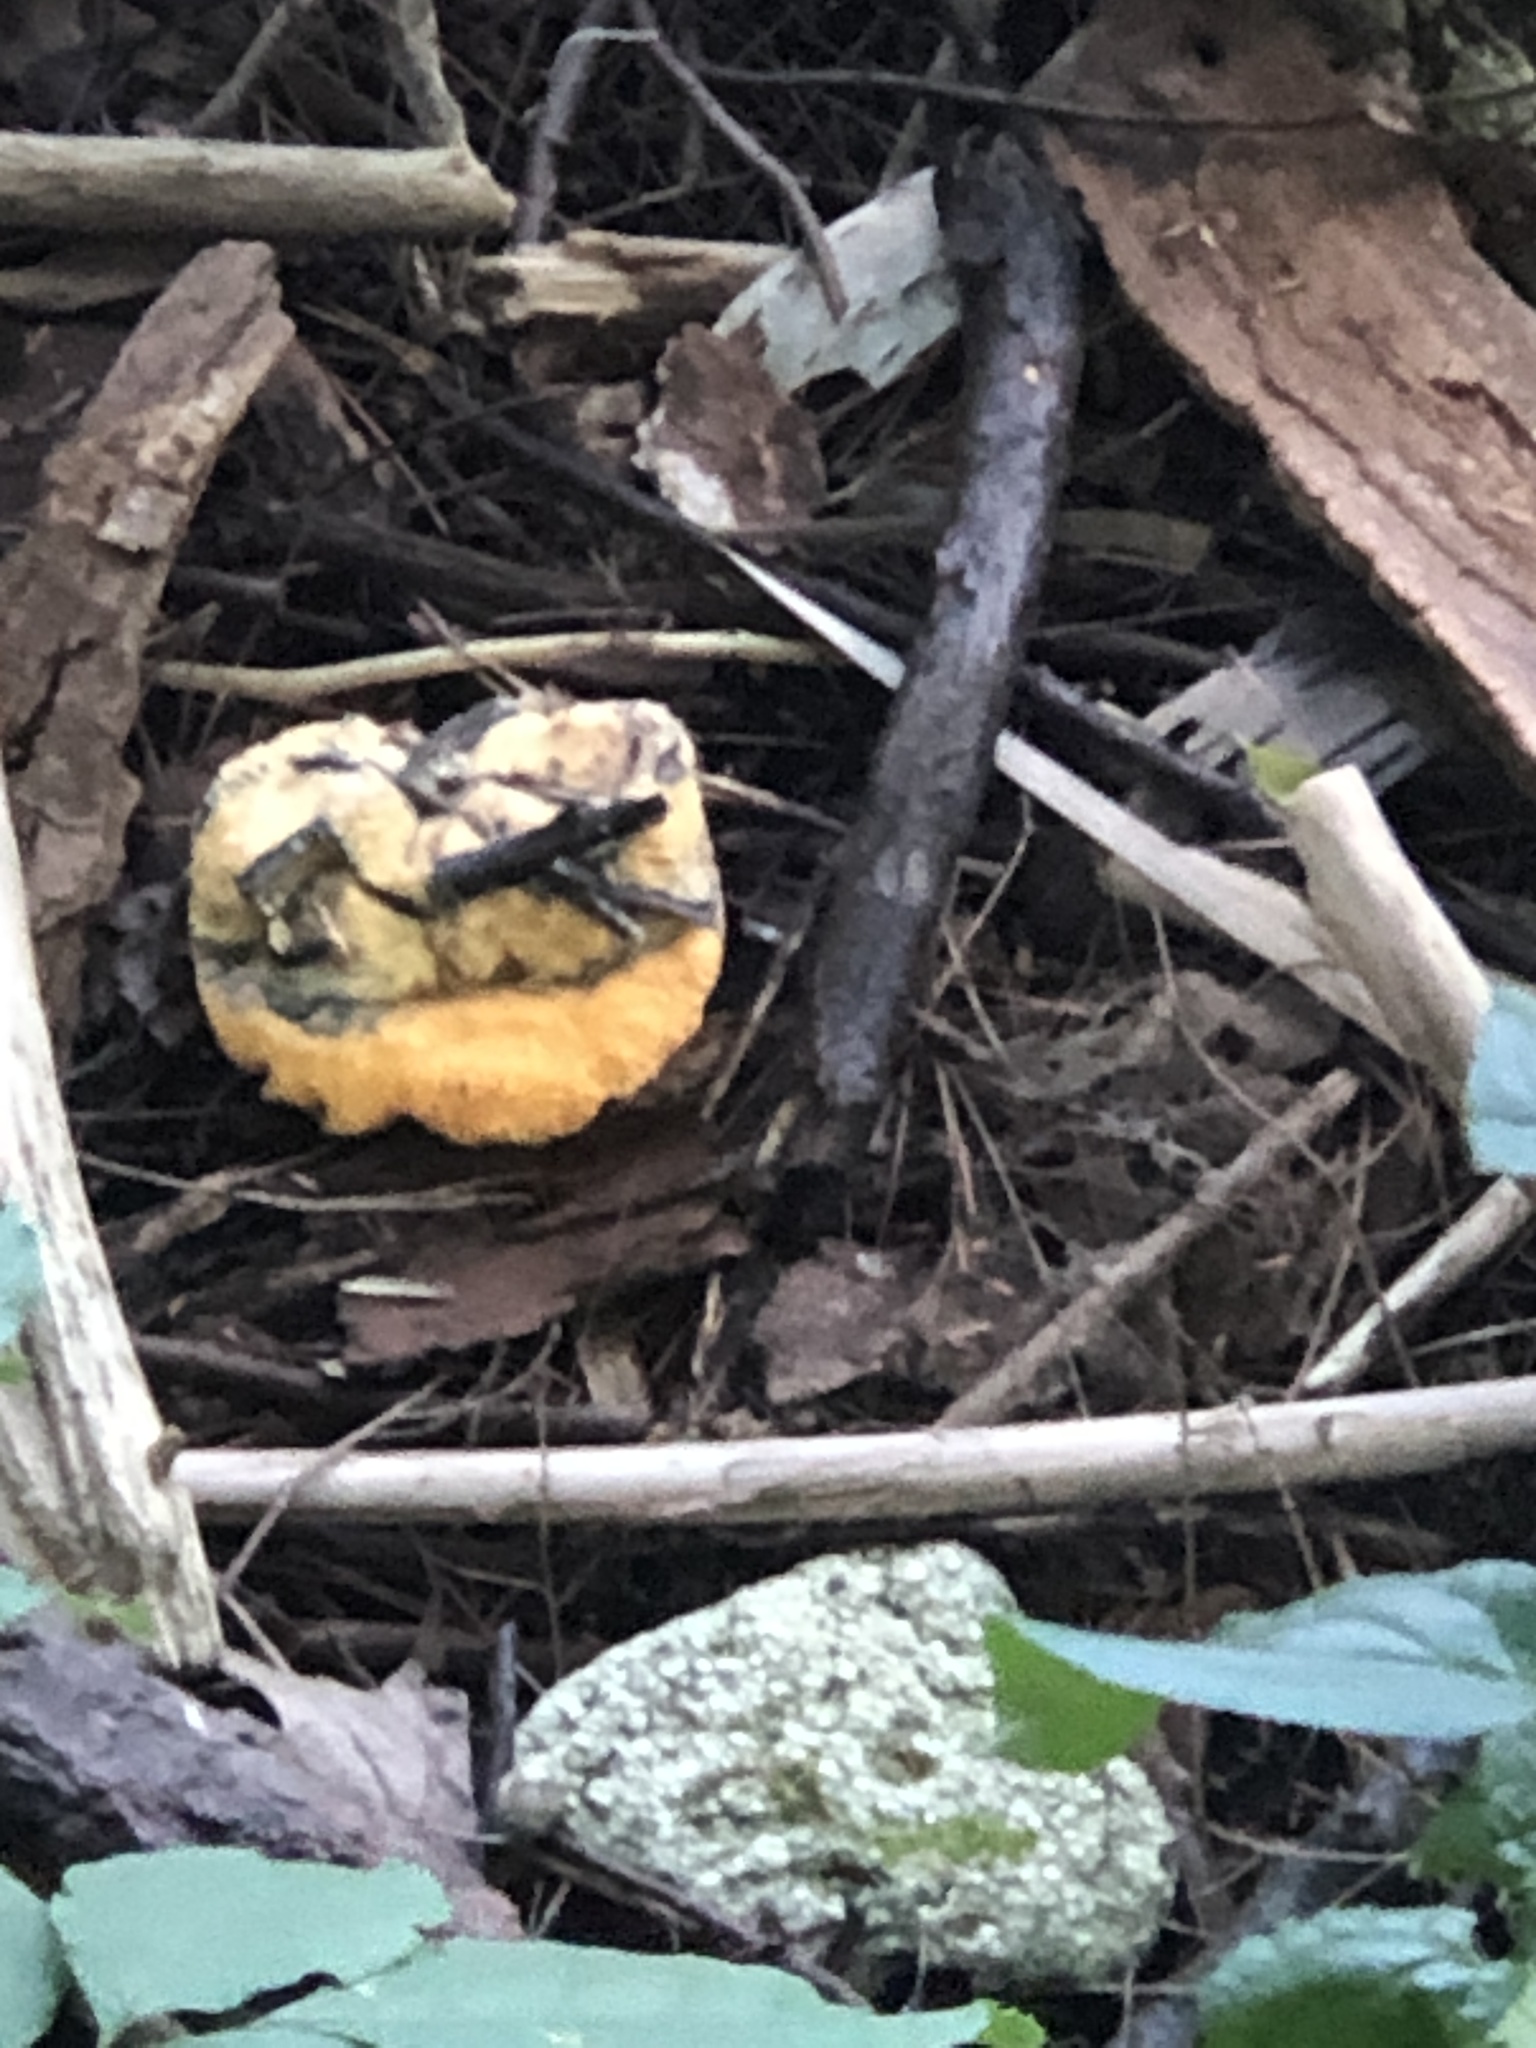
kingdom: Fungi
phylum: Ascomycota
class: Sordariomycetes
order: Hypocreales
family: Hypocreaceae
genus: Hypomyces
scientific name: Hypomyces lactifluorum
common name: Lobster mushroom
